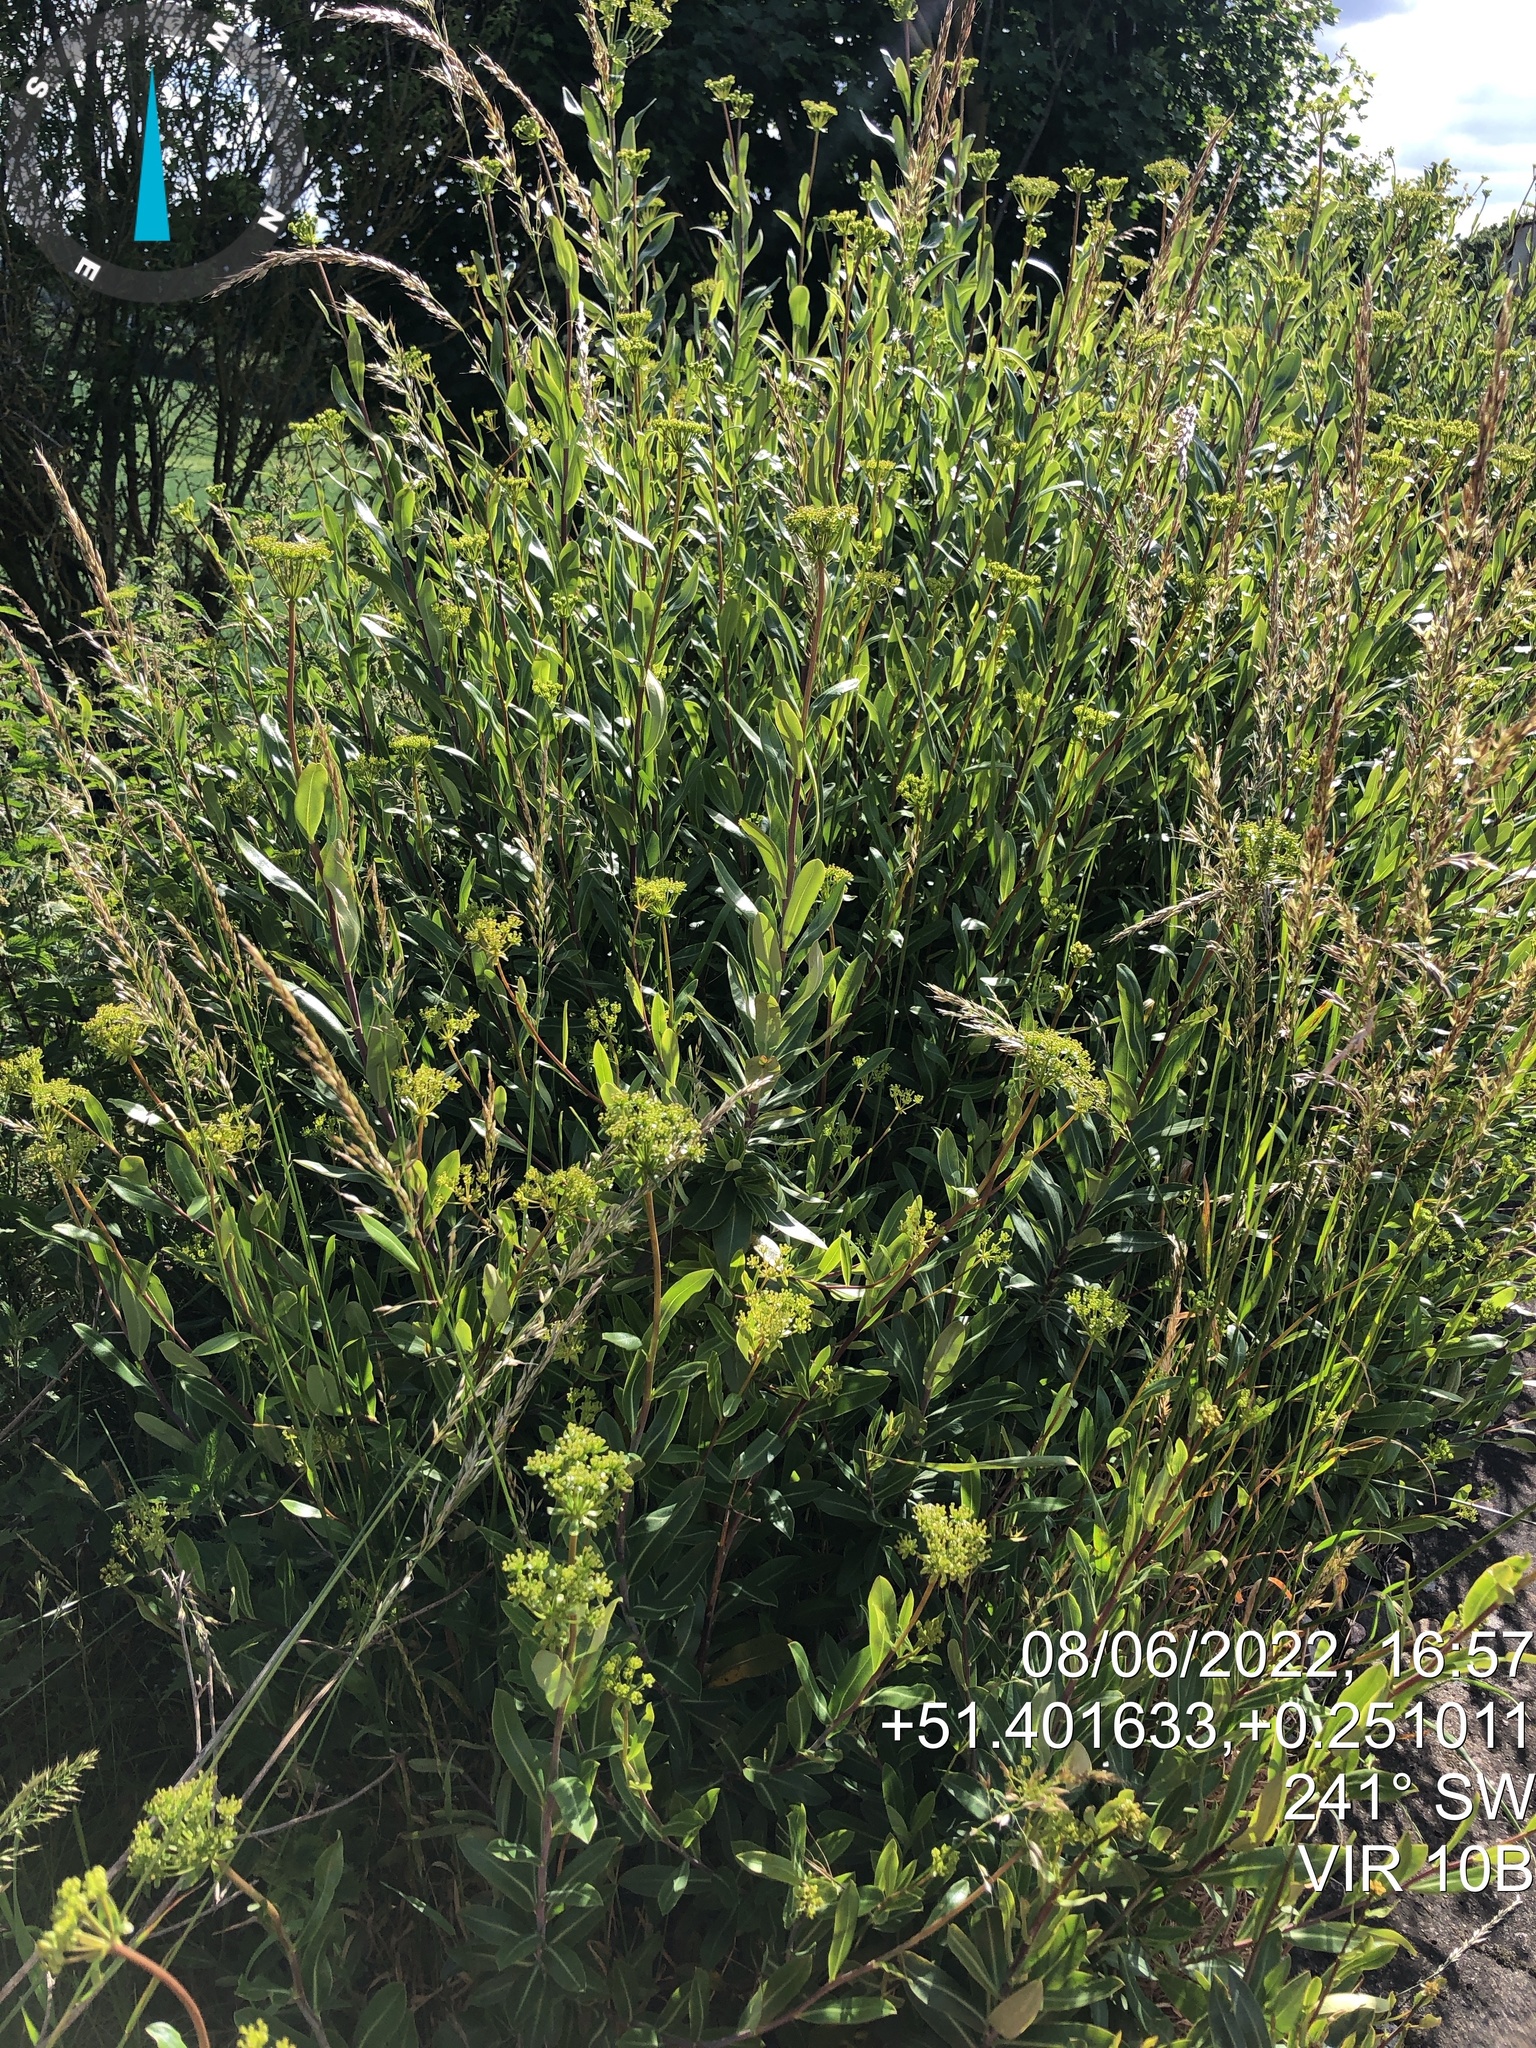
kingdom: Plantae
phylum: Tracheophyta
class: Magnoliopsida
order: Apiales
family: Apiaceae
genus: Bupleurum
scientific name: Bupleurum fruticosum
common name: Shrubby hare's-ear
